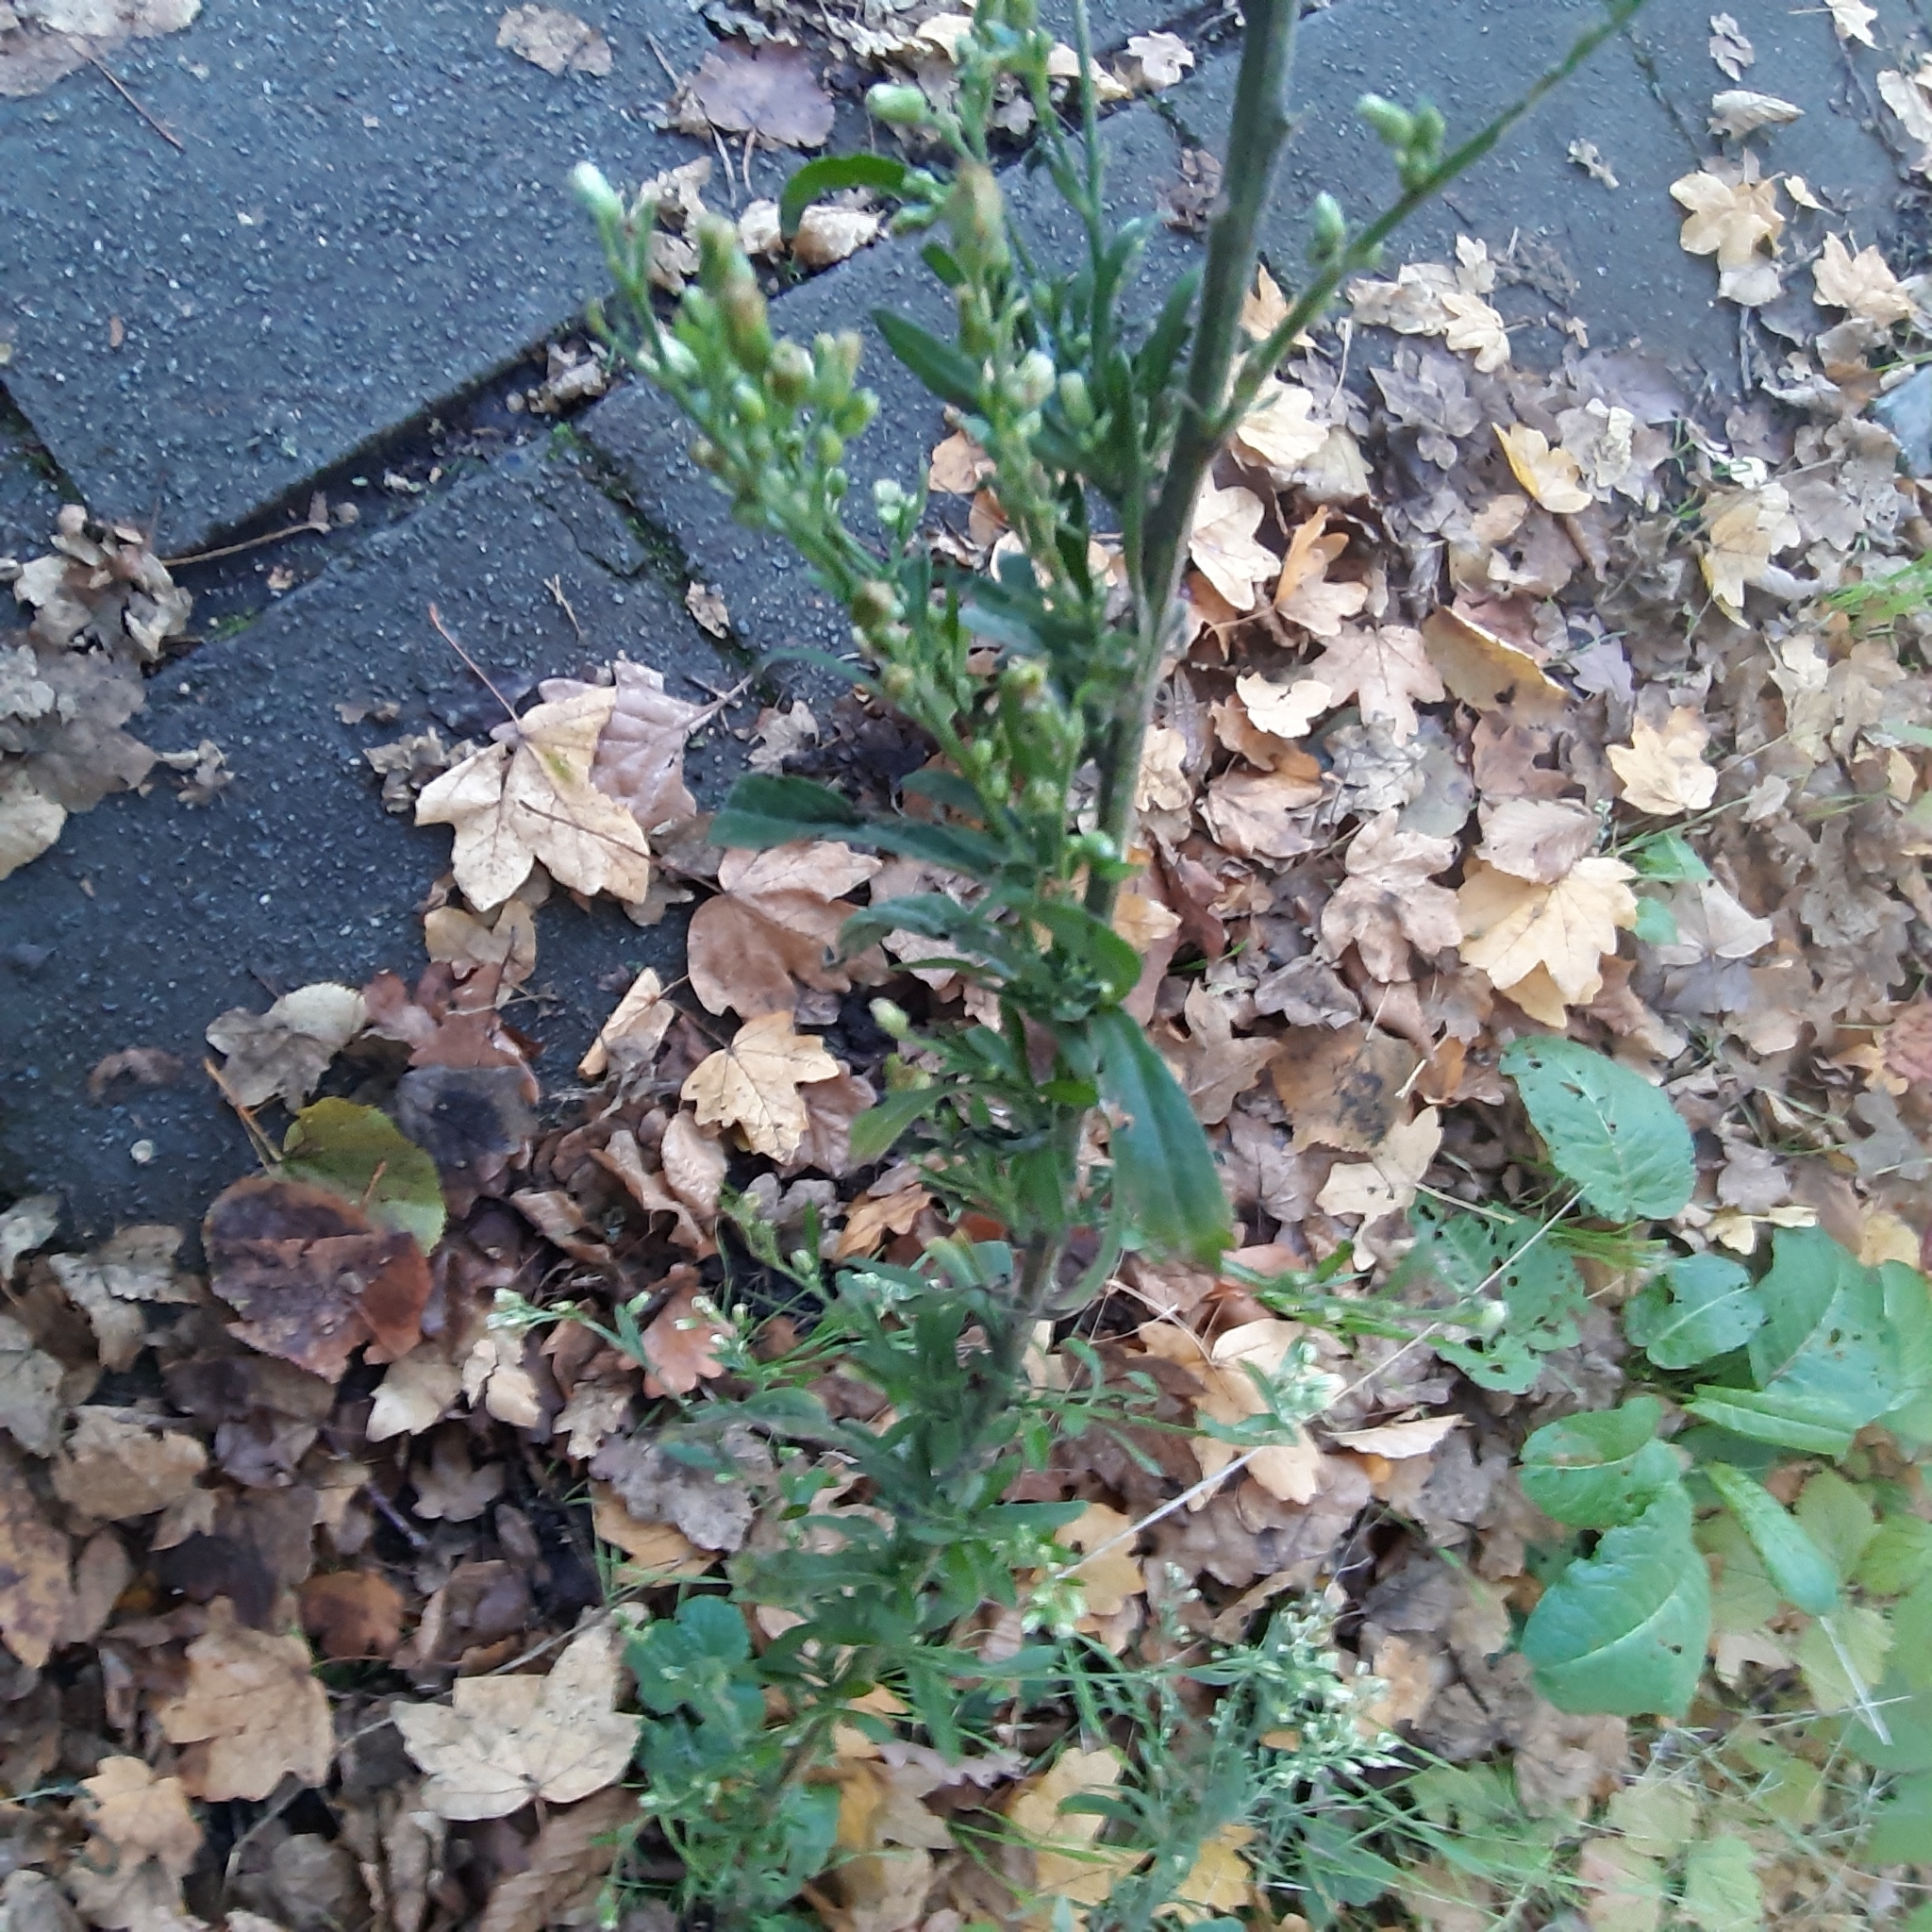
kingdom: Plantae
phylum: Tracheophyta
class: Magnoliopsida
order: Asterales
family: Asteraceae
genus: Erigeron
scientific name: Erigeron sumatrensis
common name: Daisy
